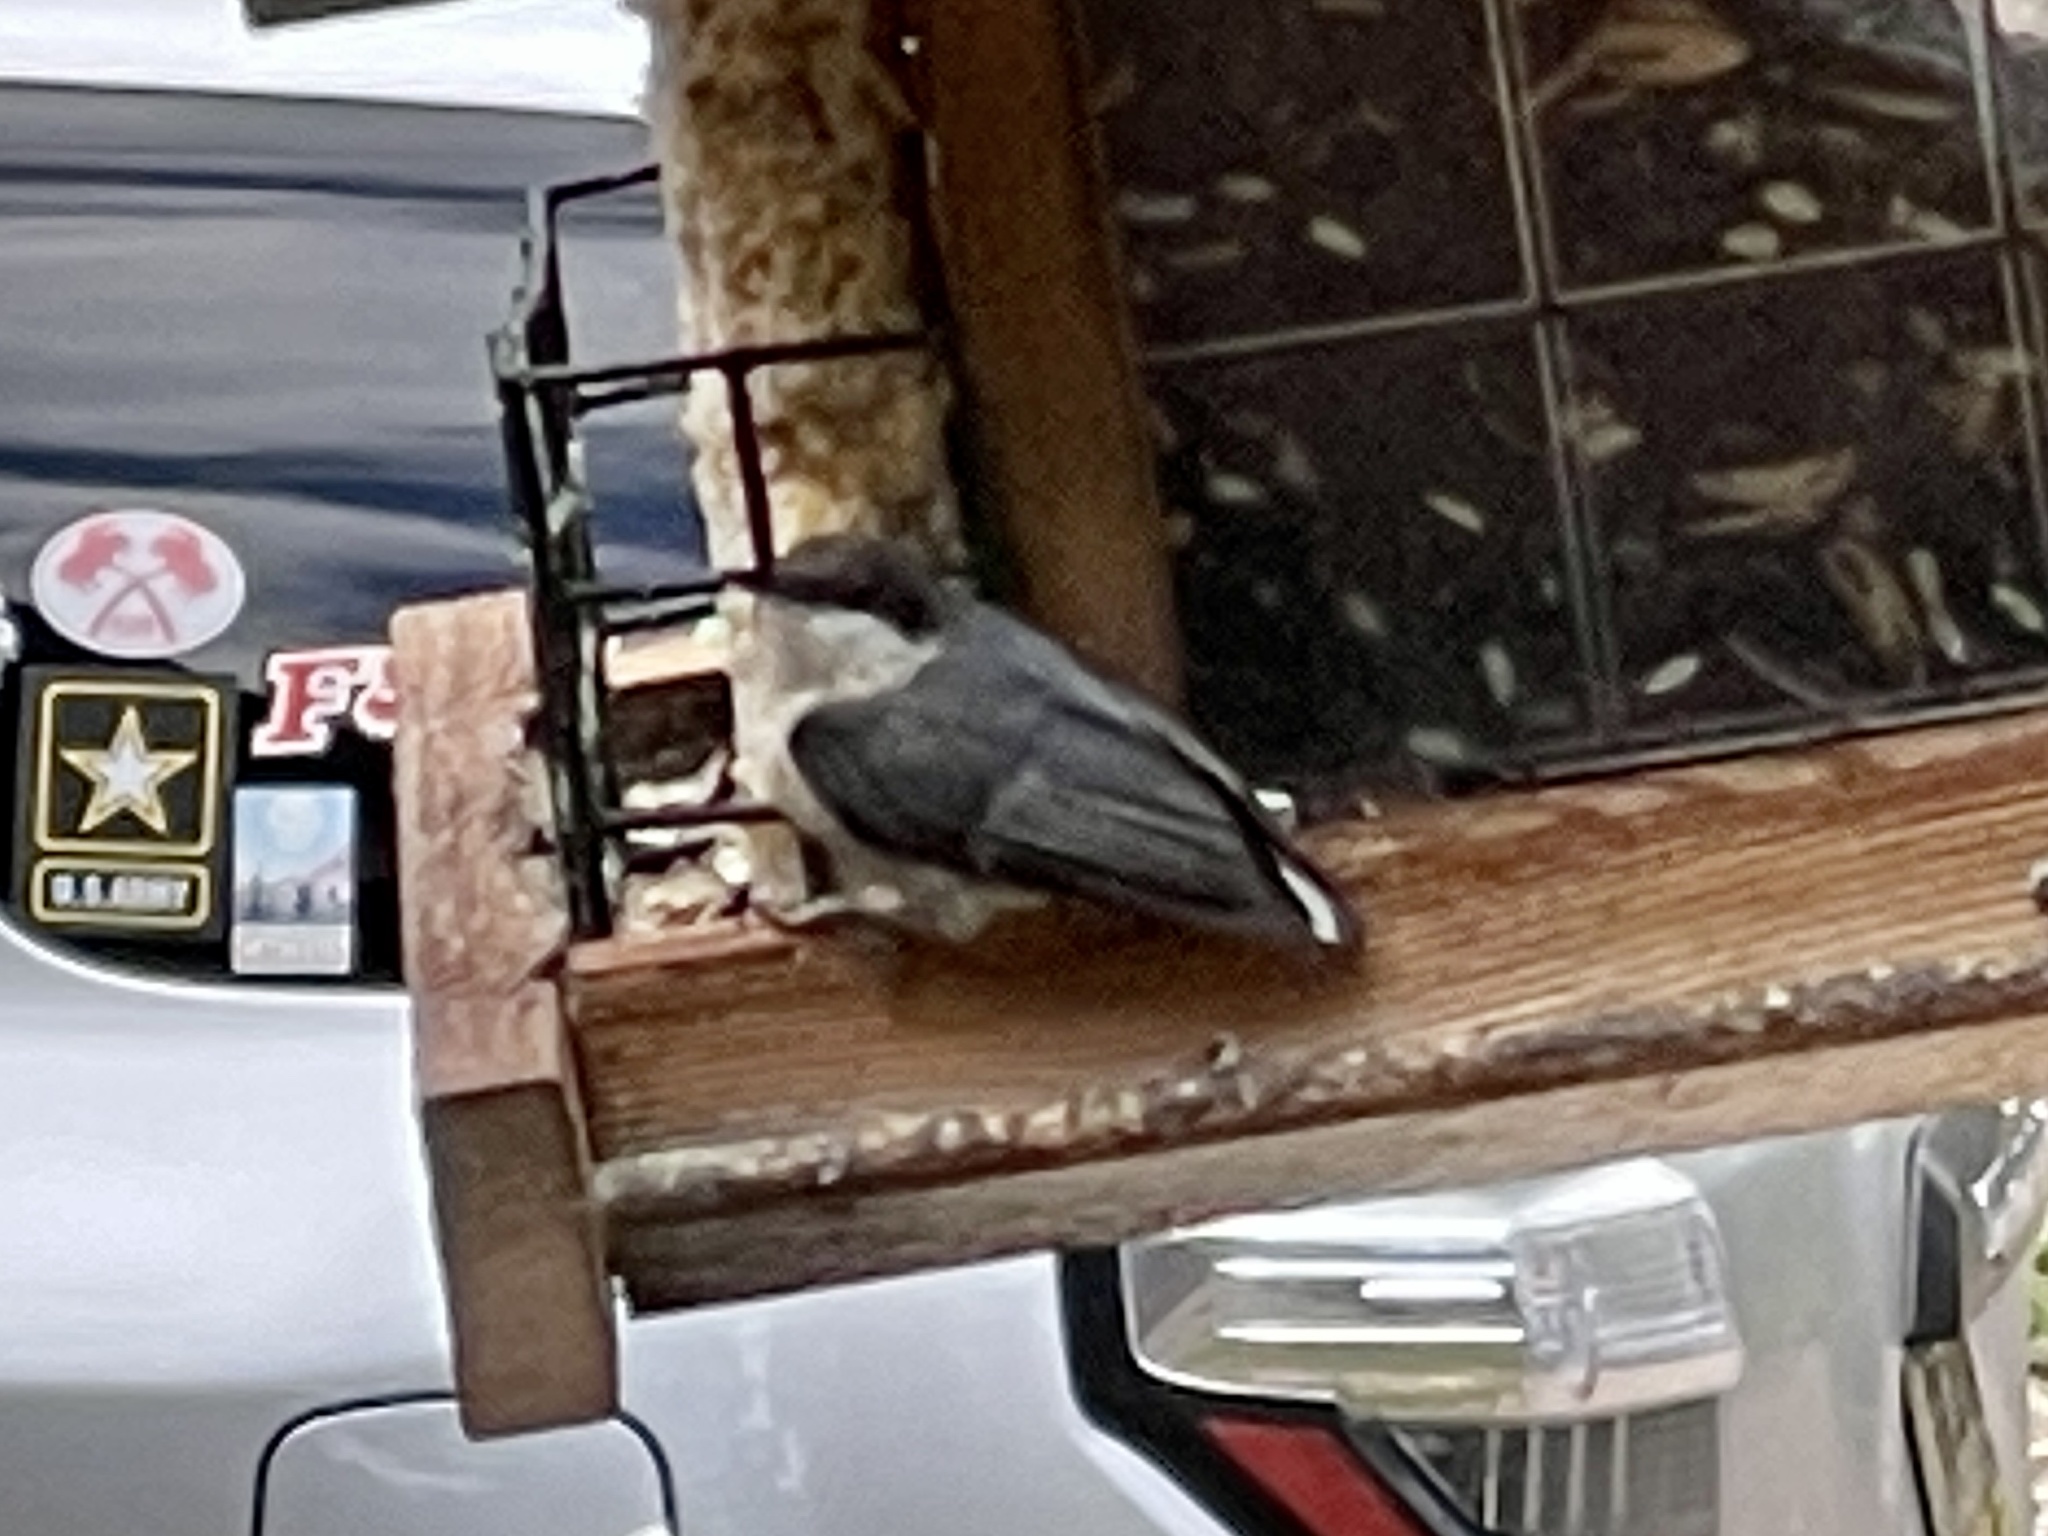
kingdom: Animalia
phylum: Chordata
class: Aves
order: Passeriformes
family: Sittidae
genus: Sitta
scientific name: Sitta pygmaea
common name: Pygmy nuthatch
